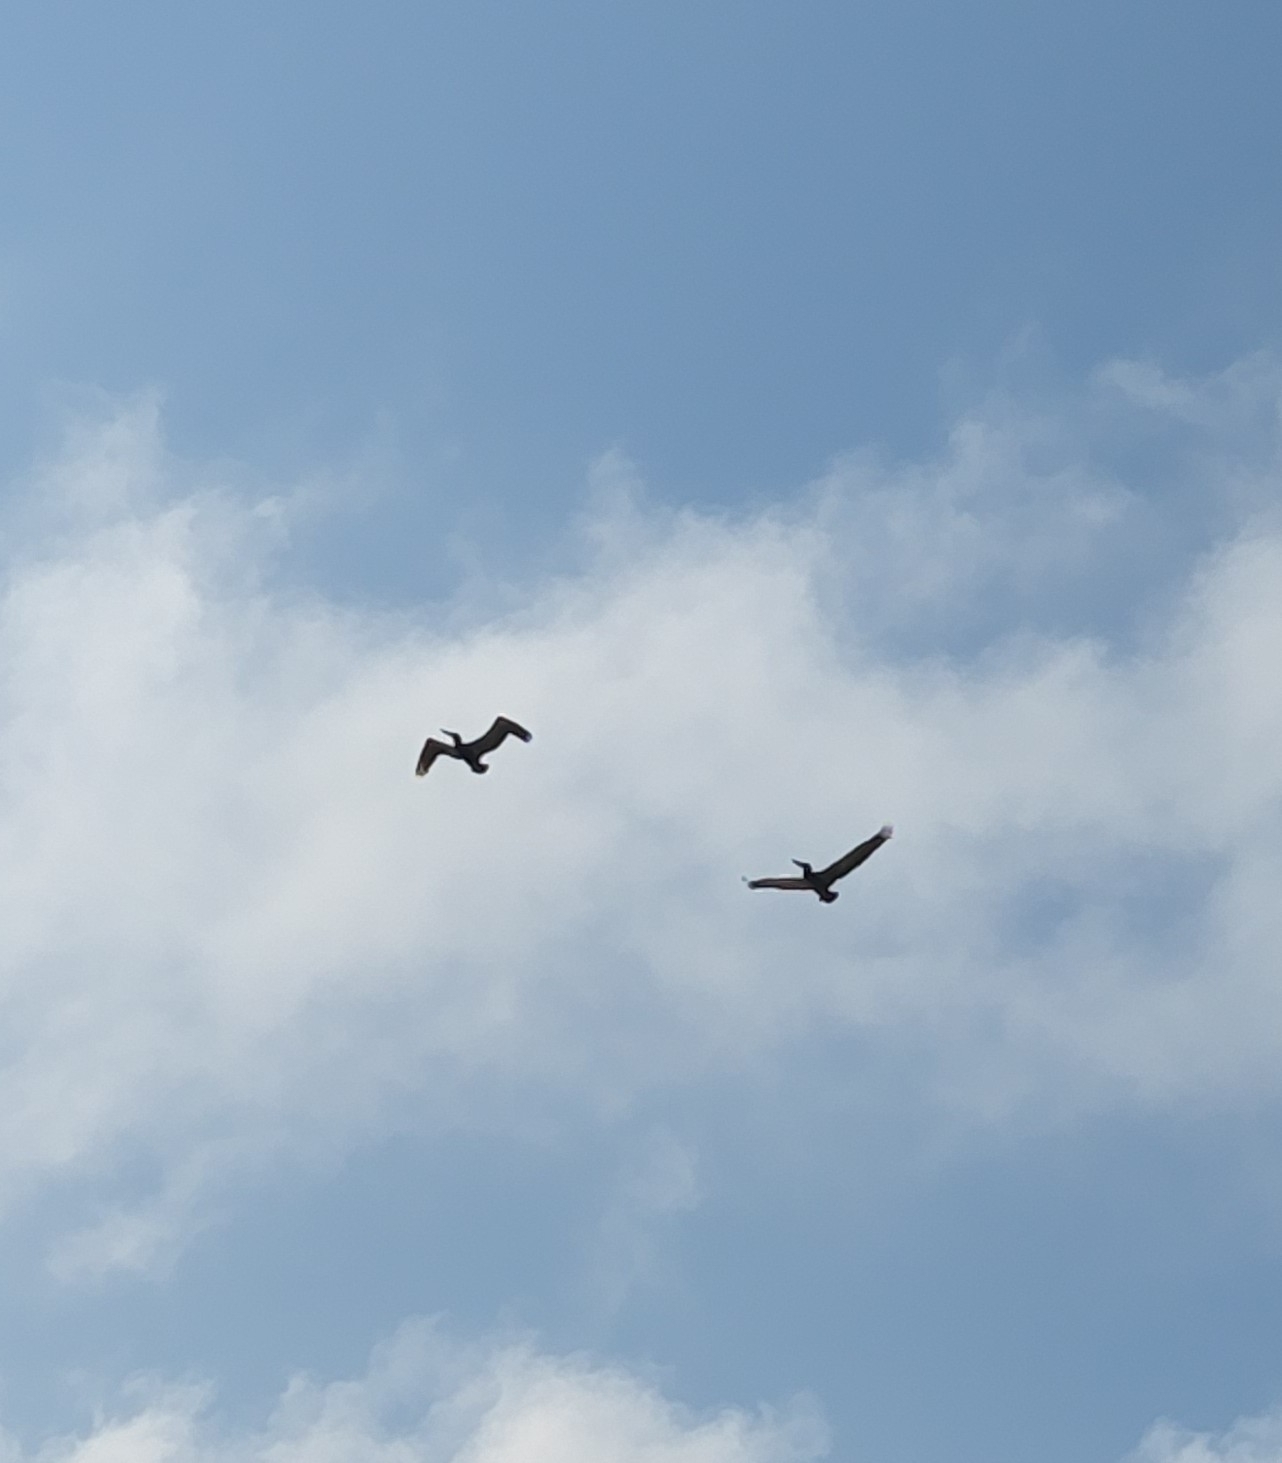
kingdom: Animalia
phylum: Chordata
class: Aves
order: Pelecaniformes
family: Pelecanidae
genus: Pelecanus
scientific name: Pelecanus occidentalis
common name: Brown pelican
